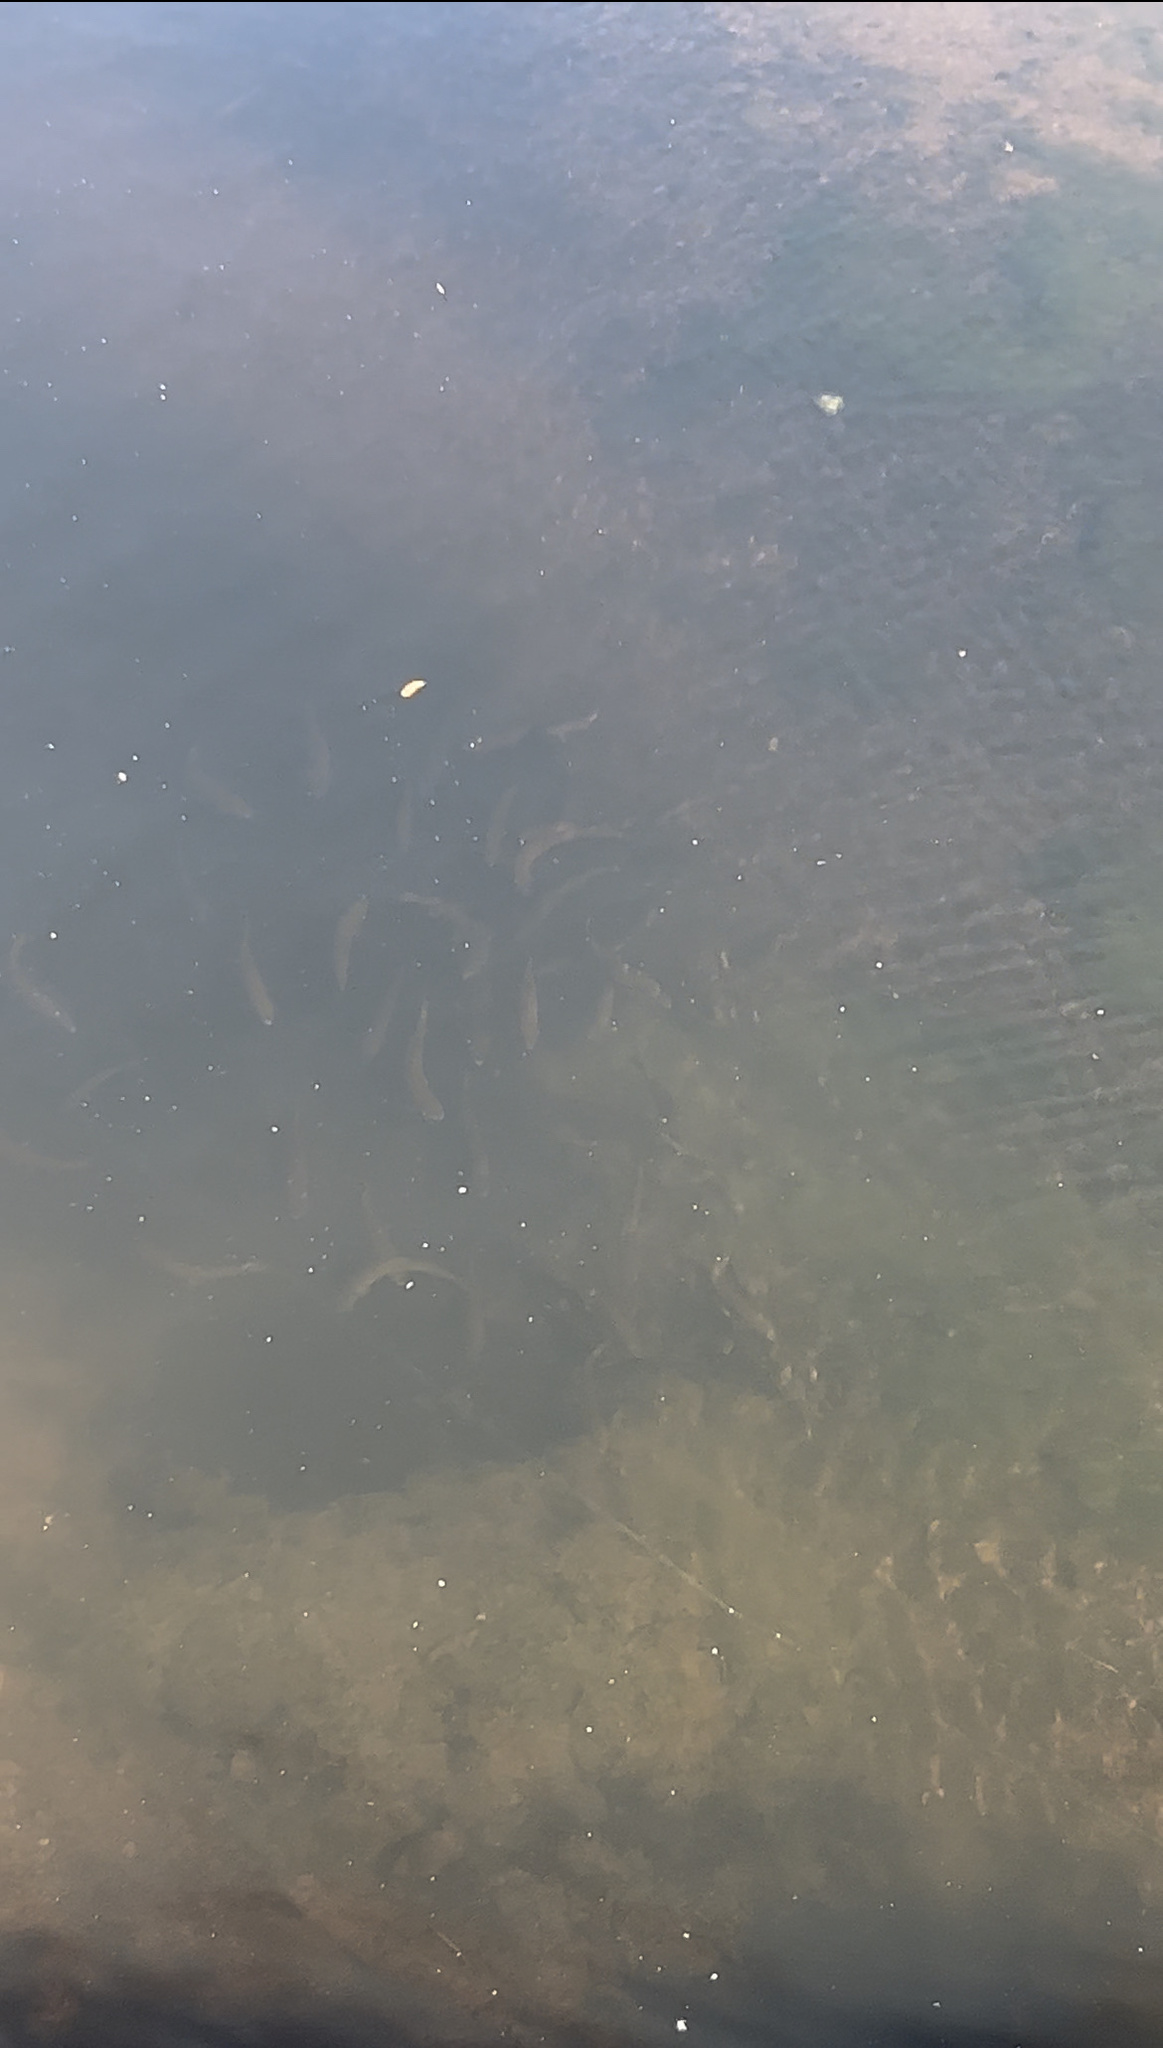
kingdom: Animalia
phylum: Chordata
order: Salmoniformes
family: Salmonidae
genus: Oncorhynchus
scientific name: Oncorhynchus mykiss
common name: Rainbow trout
